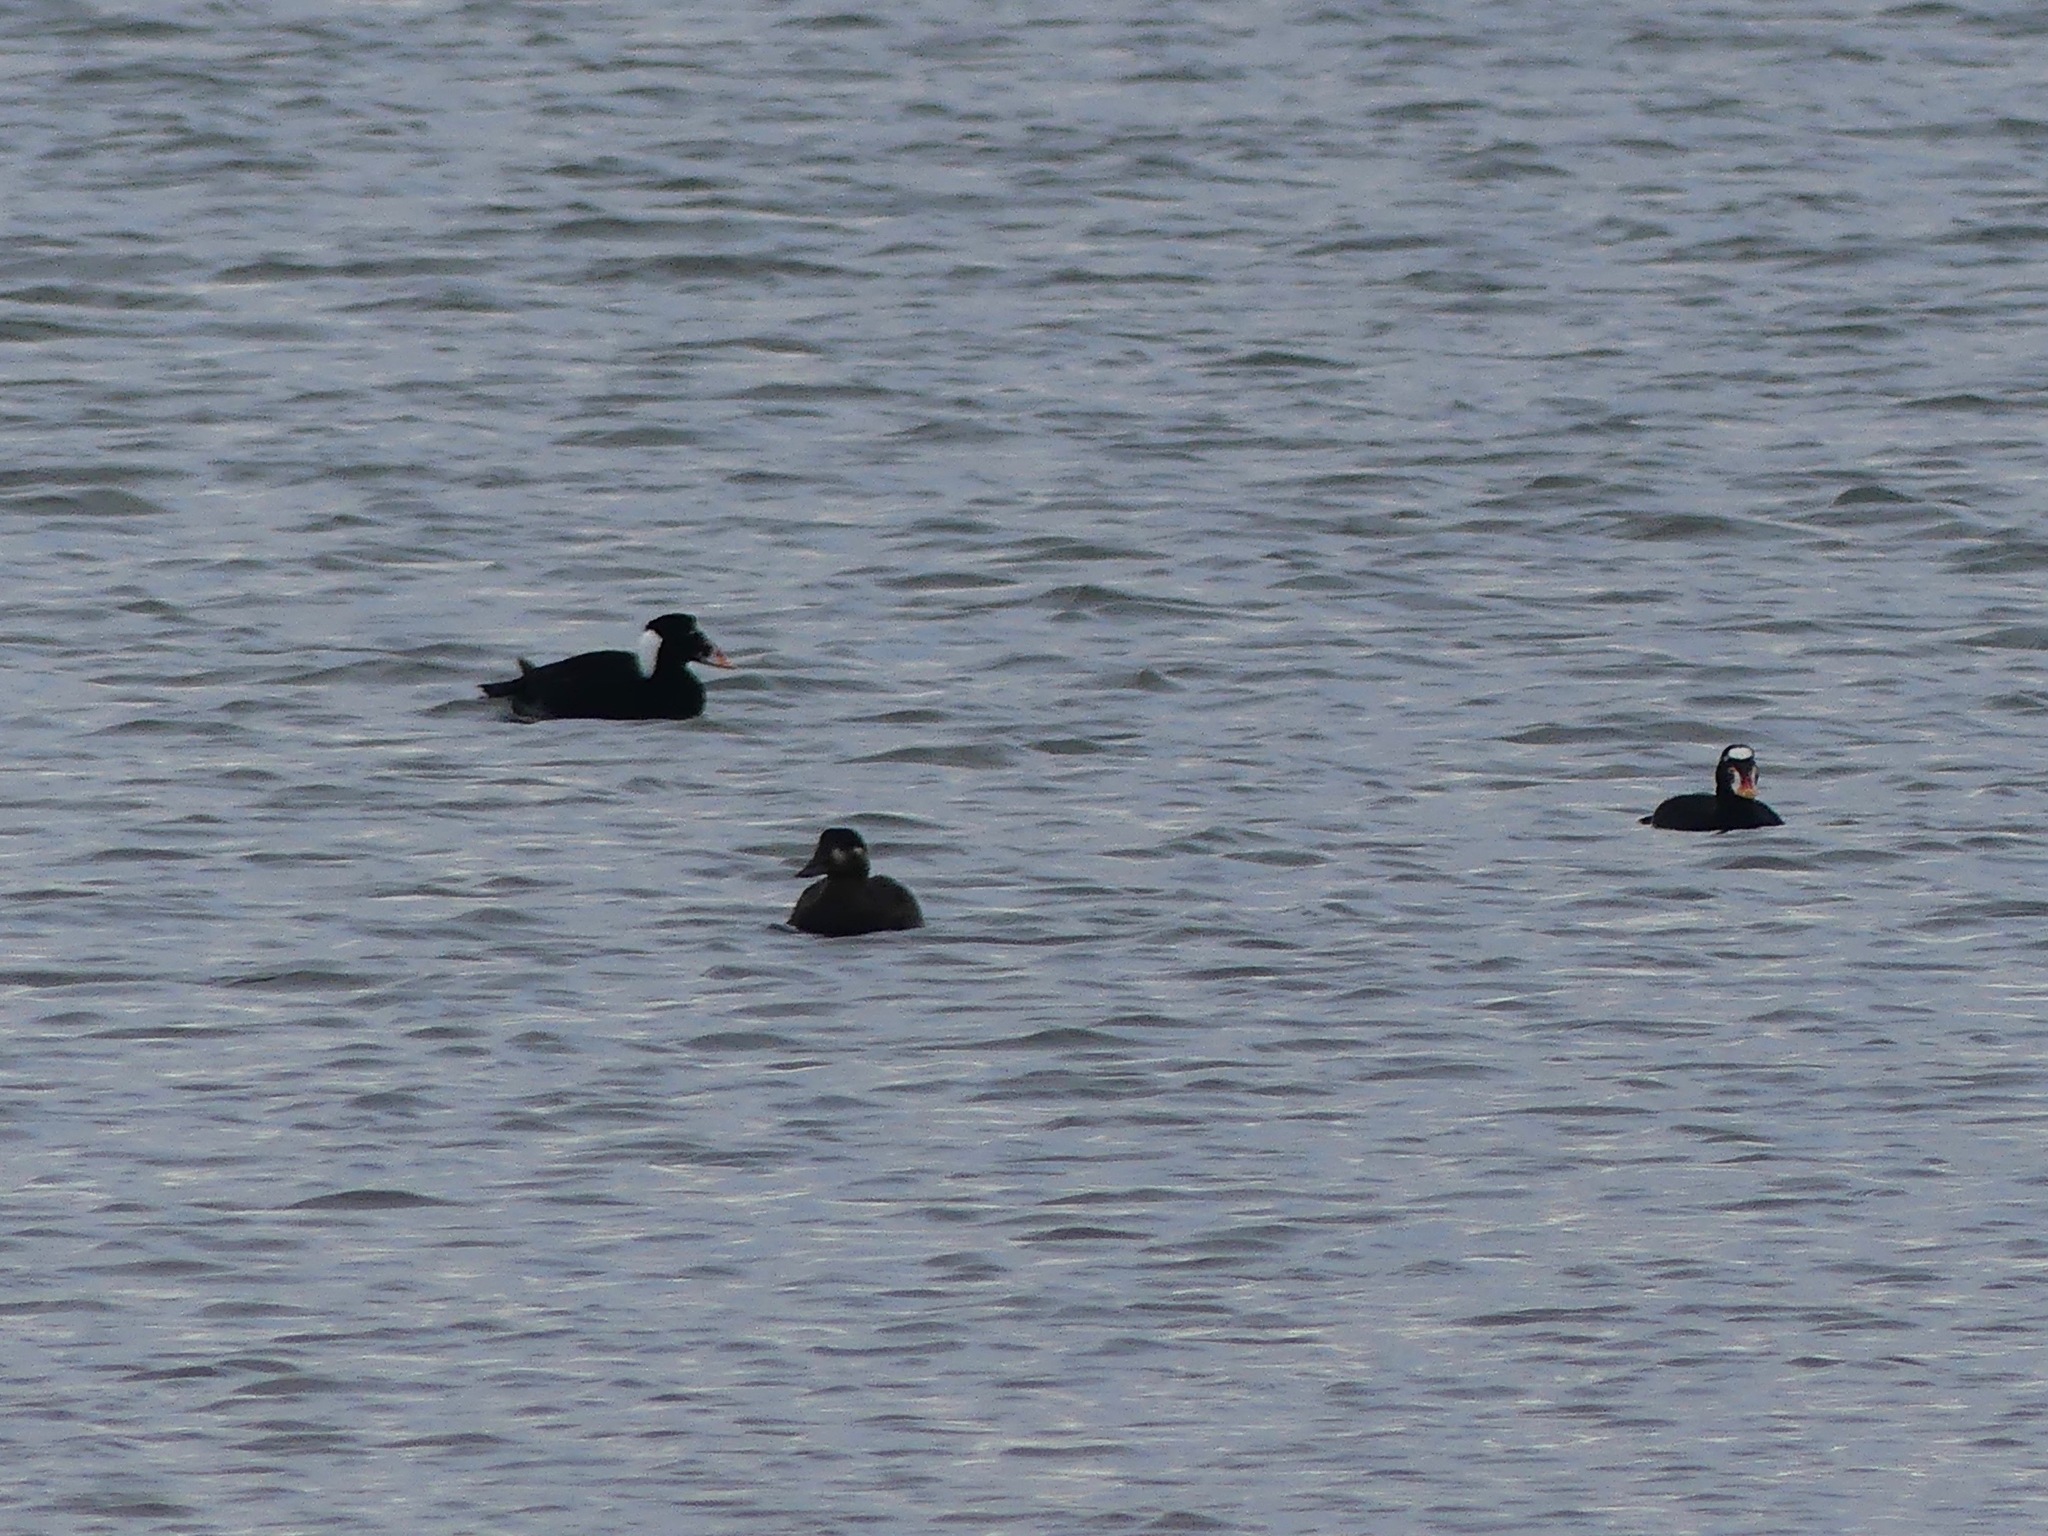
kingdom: Animalia
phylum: Chordata
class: Aves
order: Anseriformes
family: Anatidae
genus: Melanitta
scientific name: Melanitta perspicillata
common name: Surf scoter
